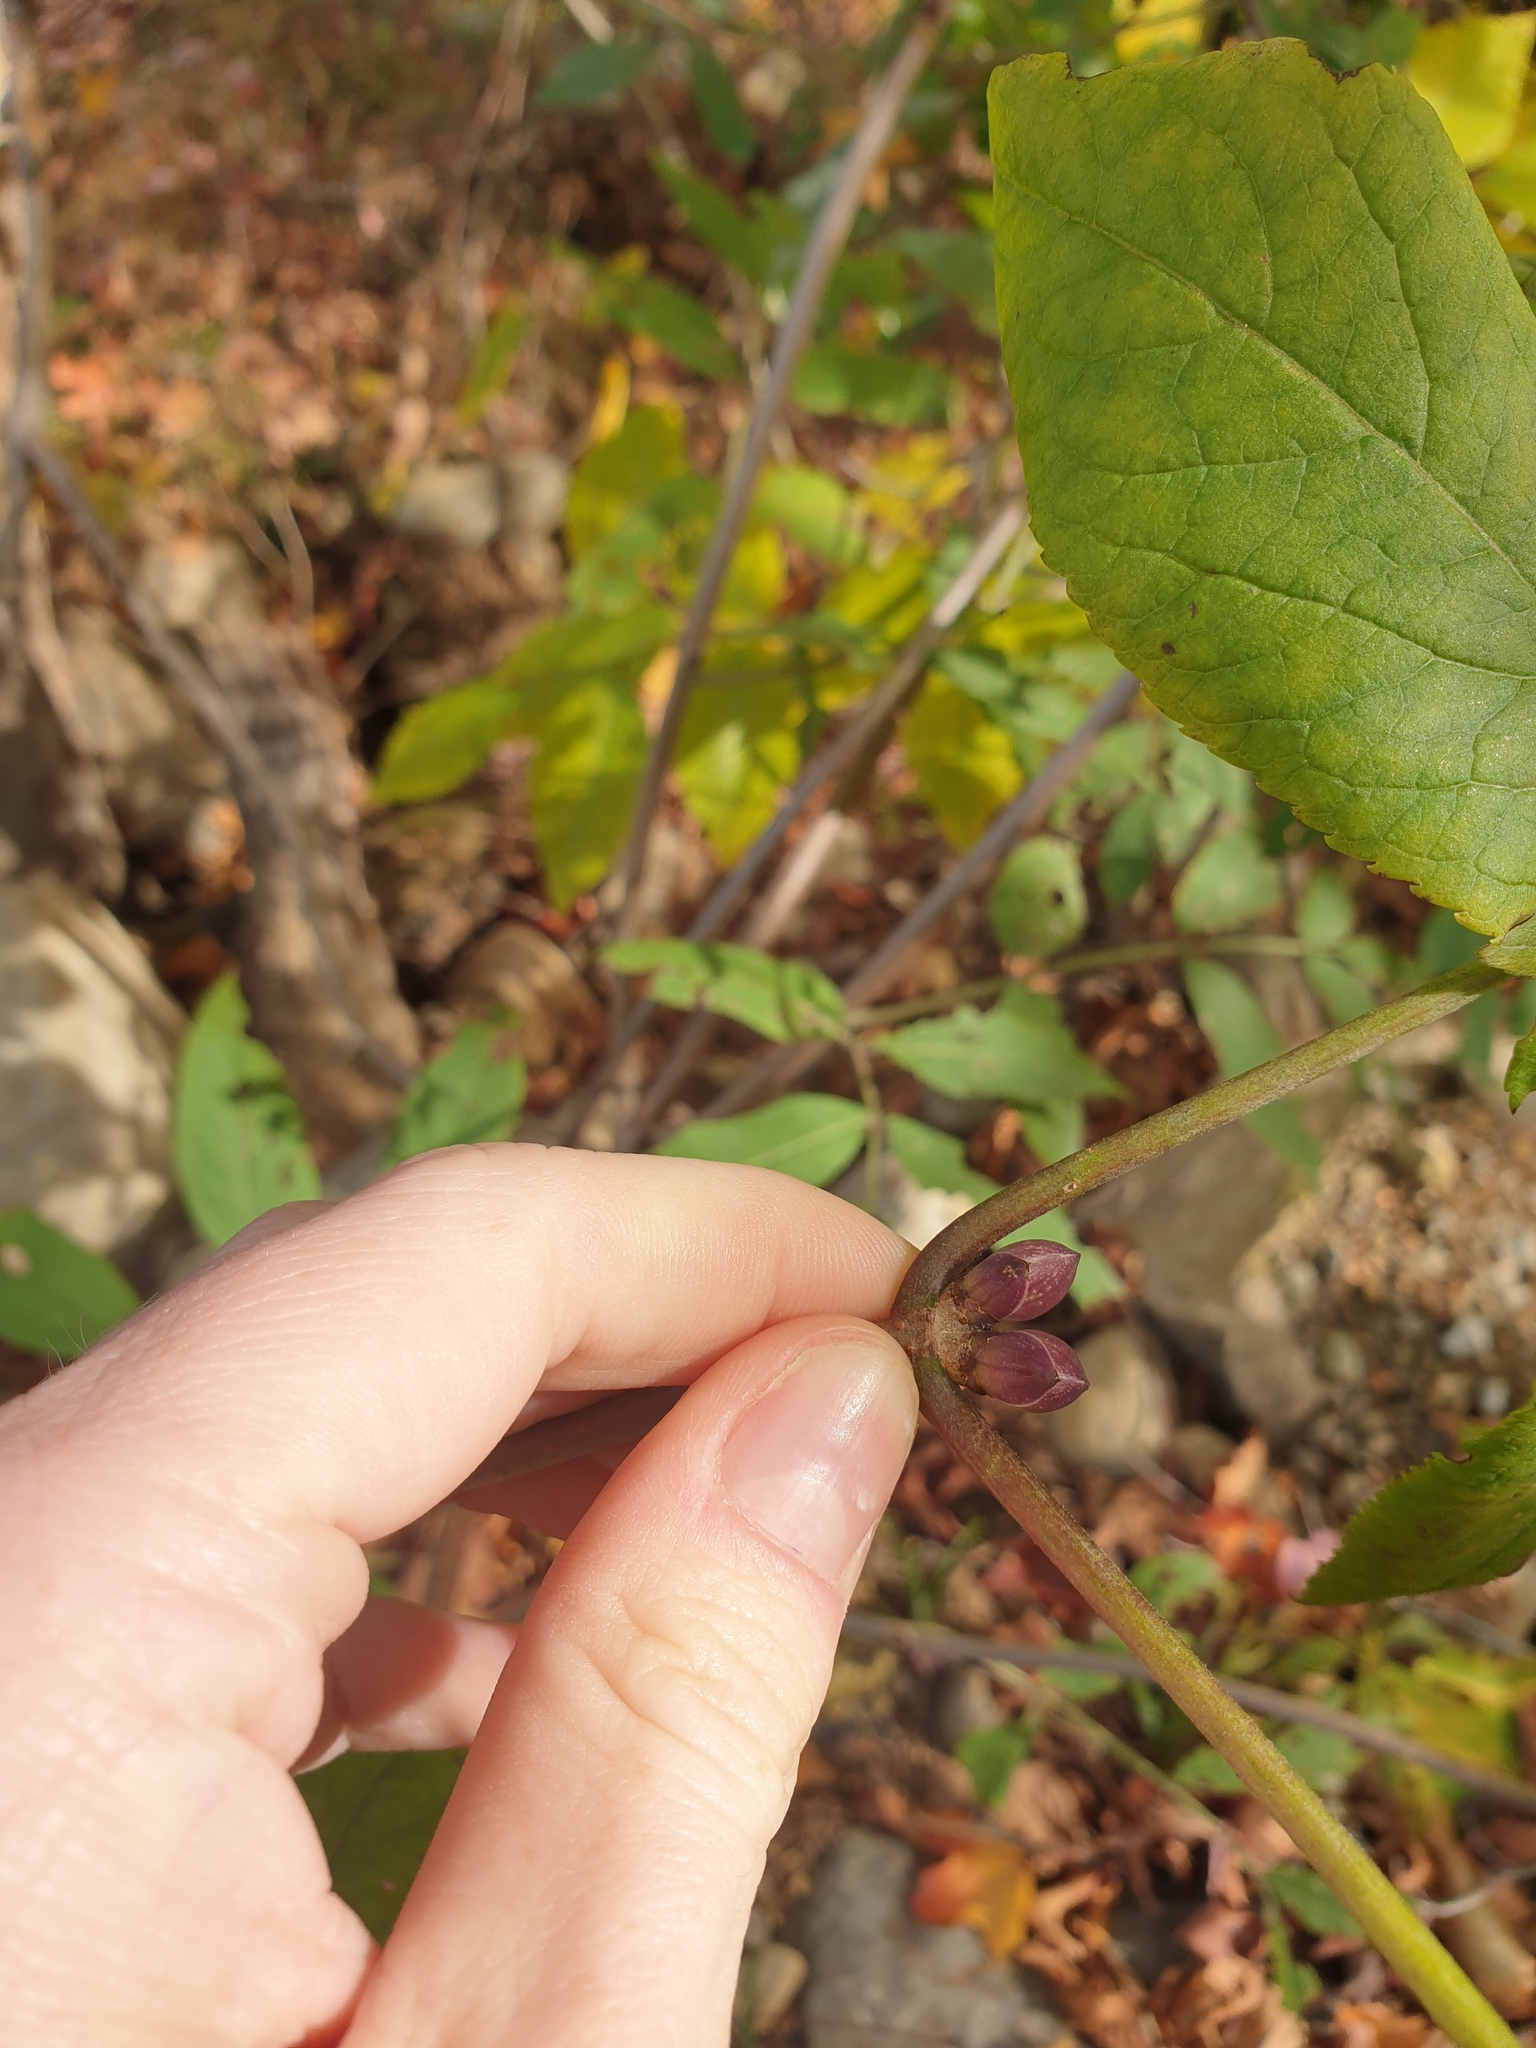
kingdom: Plantae
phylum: Tracheophyta
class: Magnoliopsida
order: Dipsacales
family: Viburnaceae
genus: Sambucus
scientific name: Sambucus racemosa
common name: Red-berried elder
